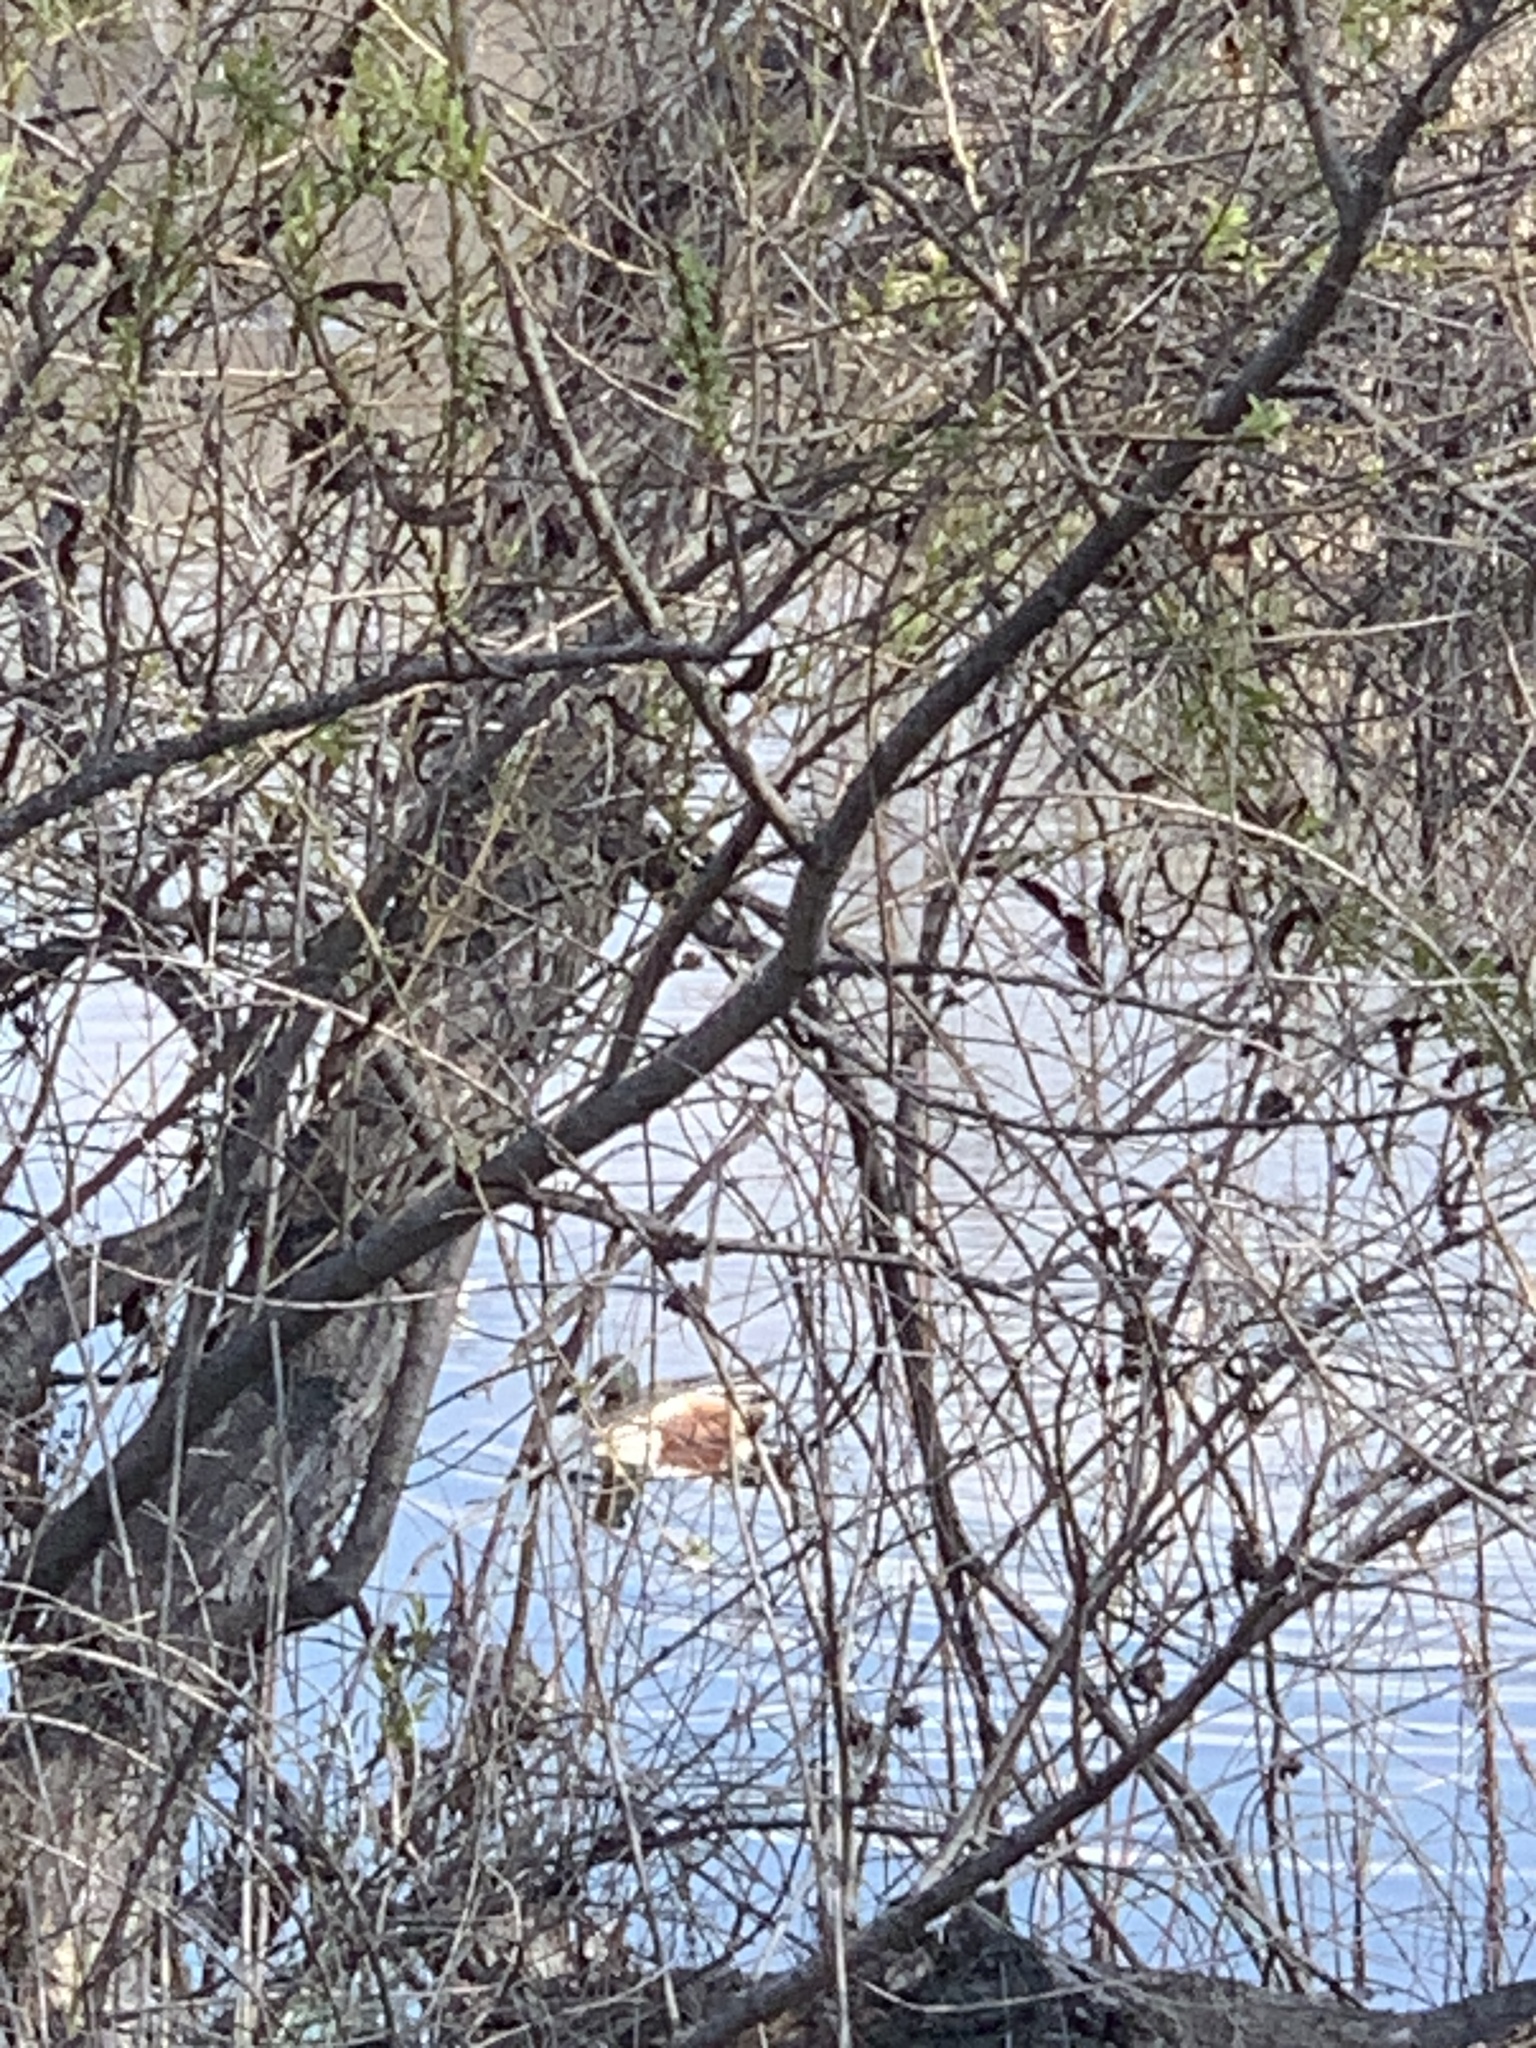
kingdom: Animalia
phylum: Chordata
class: Aves
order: Anseriformes
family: Anatidae
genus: Spatula
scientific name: Spatula clypeata
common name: Northern shoveler
